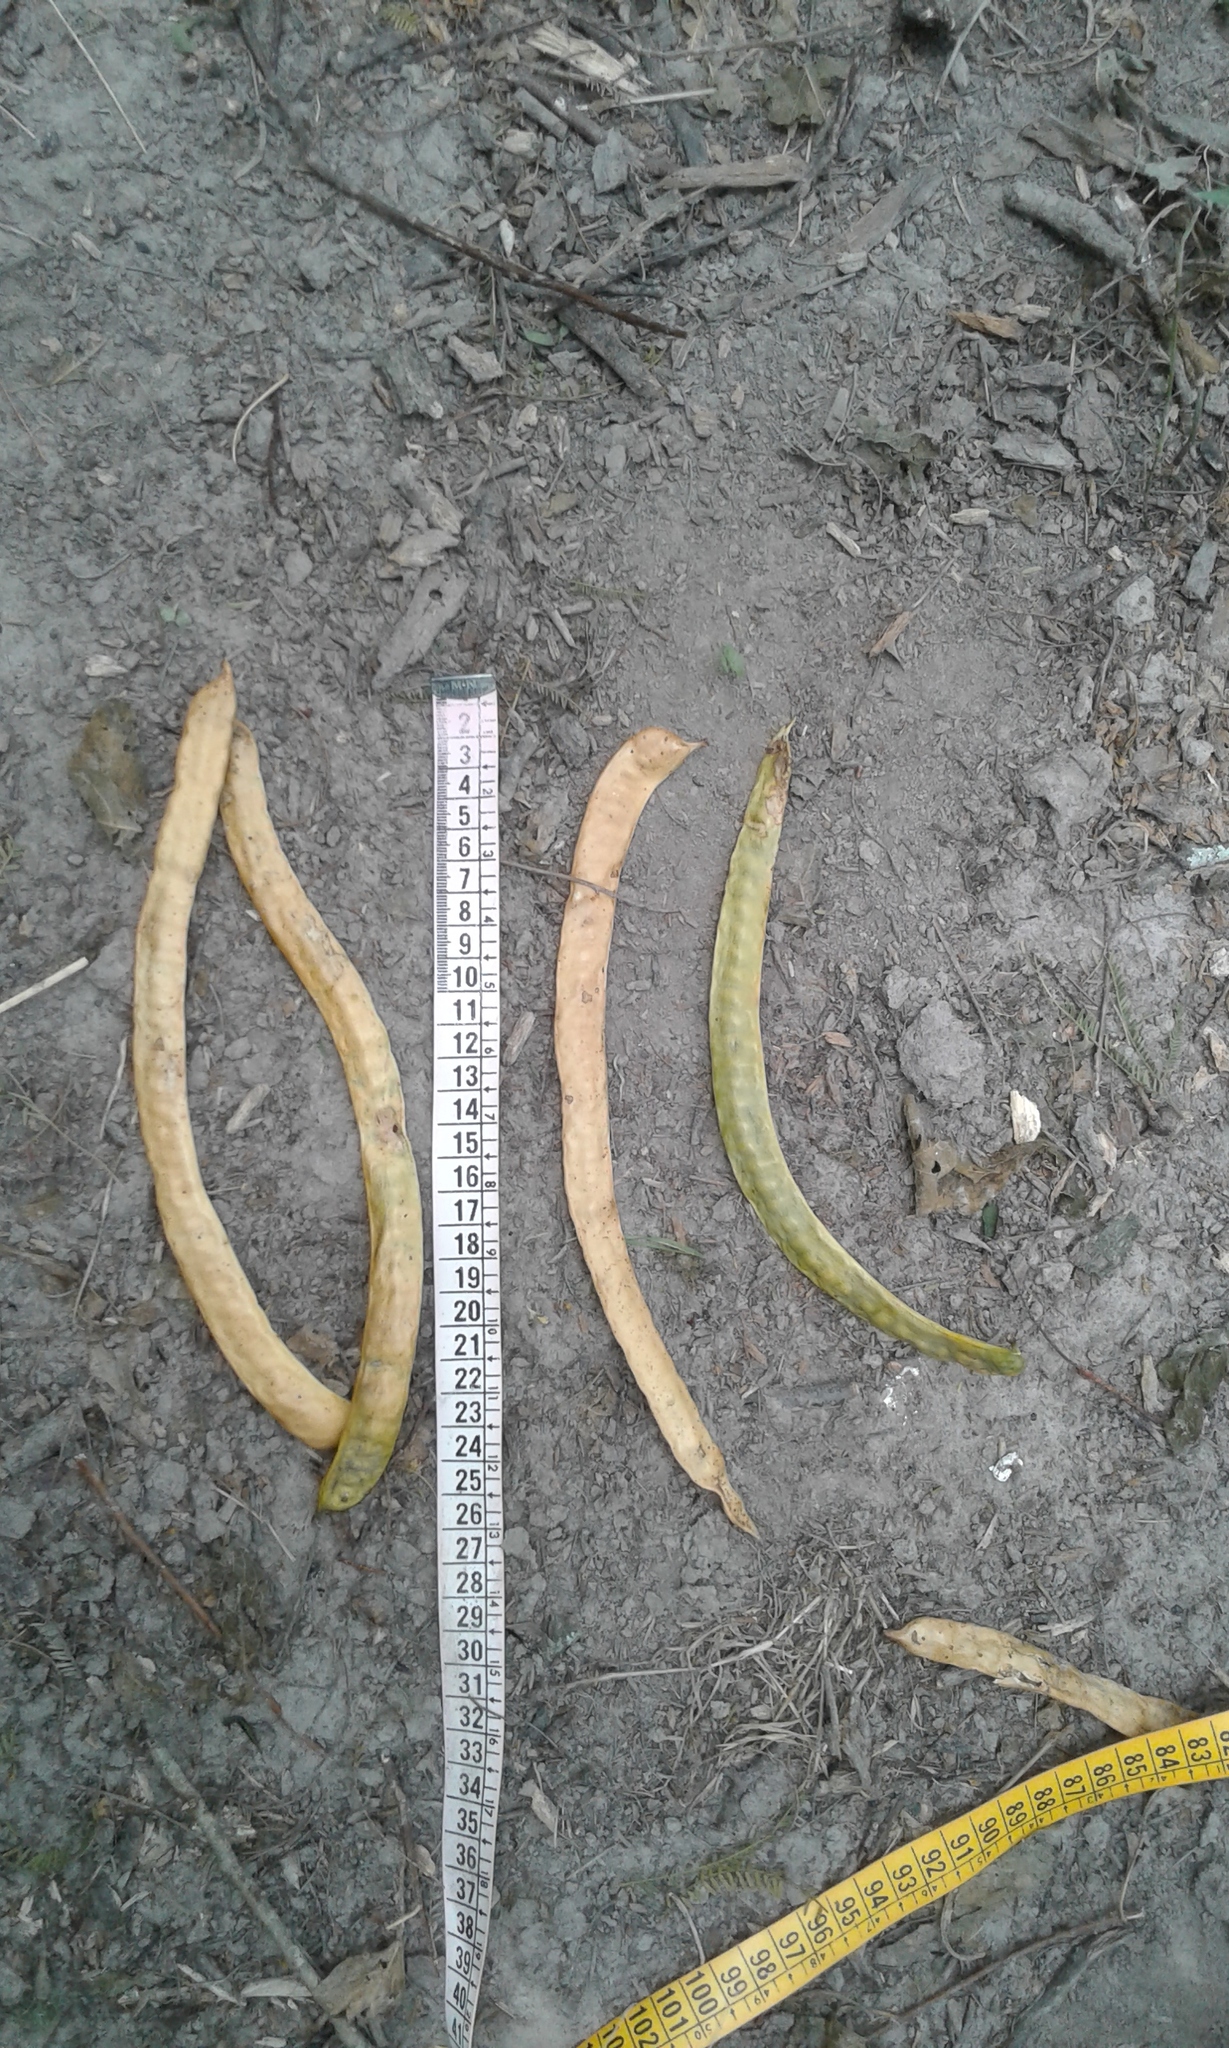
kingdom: Plantae
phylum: Tracheophyta
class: Magnoliopsida
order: Fabales
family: Fabaceae
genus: Prosopis
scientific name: Prosopis alba
